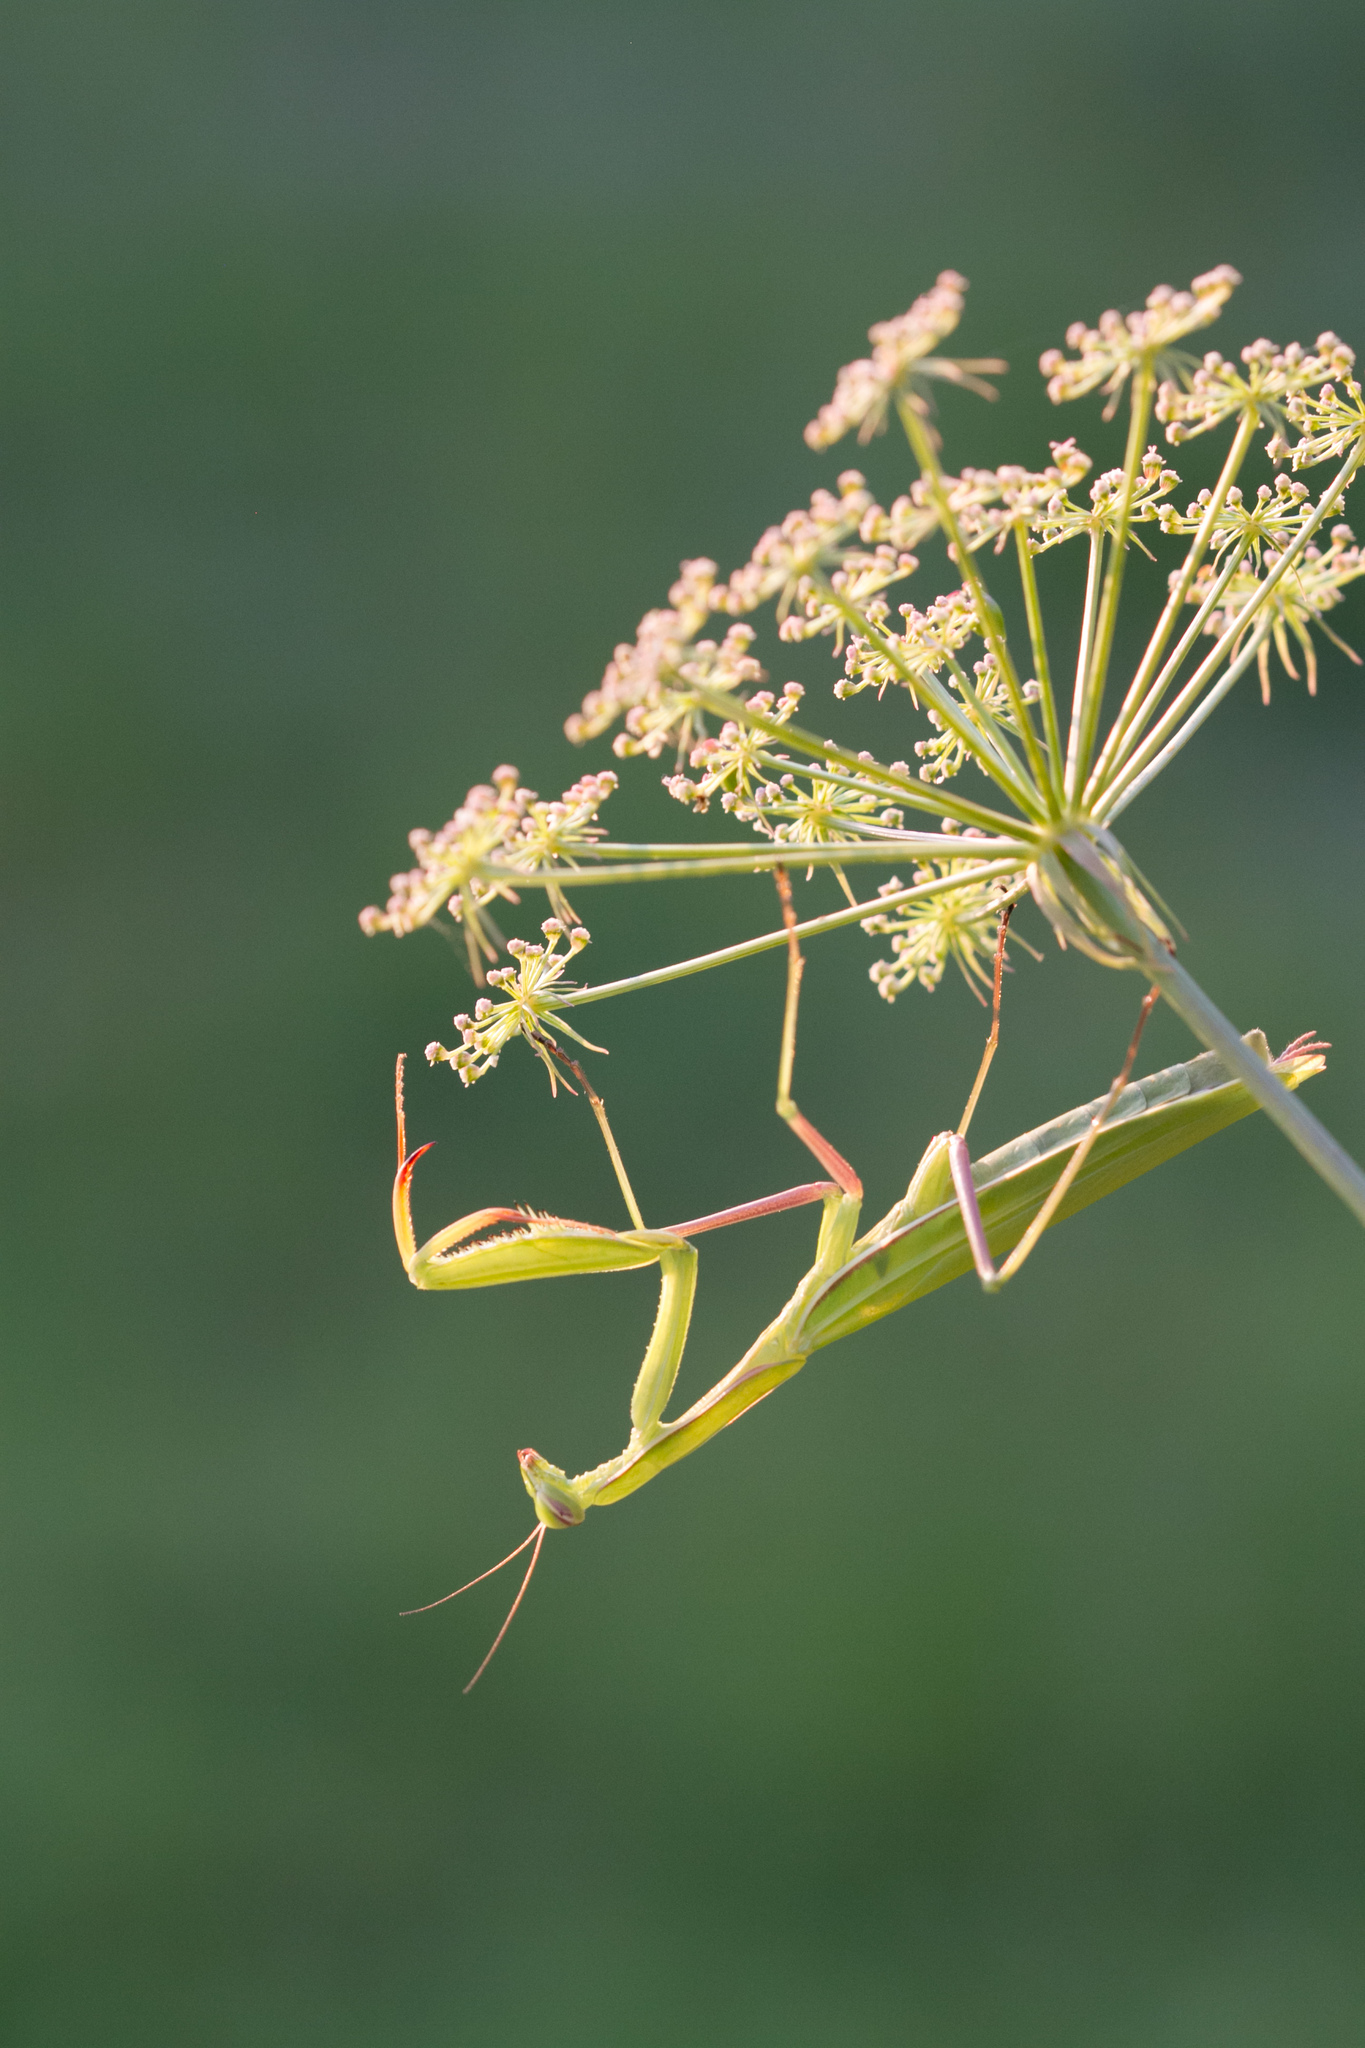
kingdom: Animalia
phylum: Arthropoda
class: Insecta
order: Mantodea
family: Mantidae
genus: Mantis
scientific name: Mantis religiosa
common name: Praying mantis
